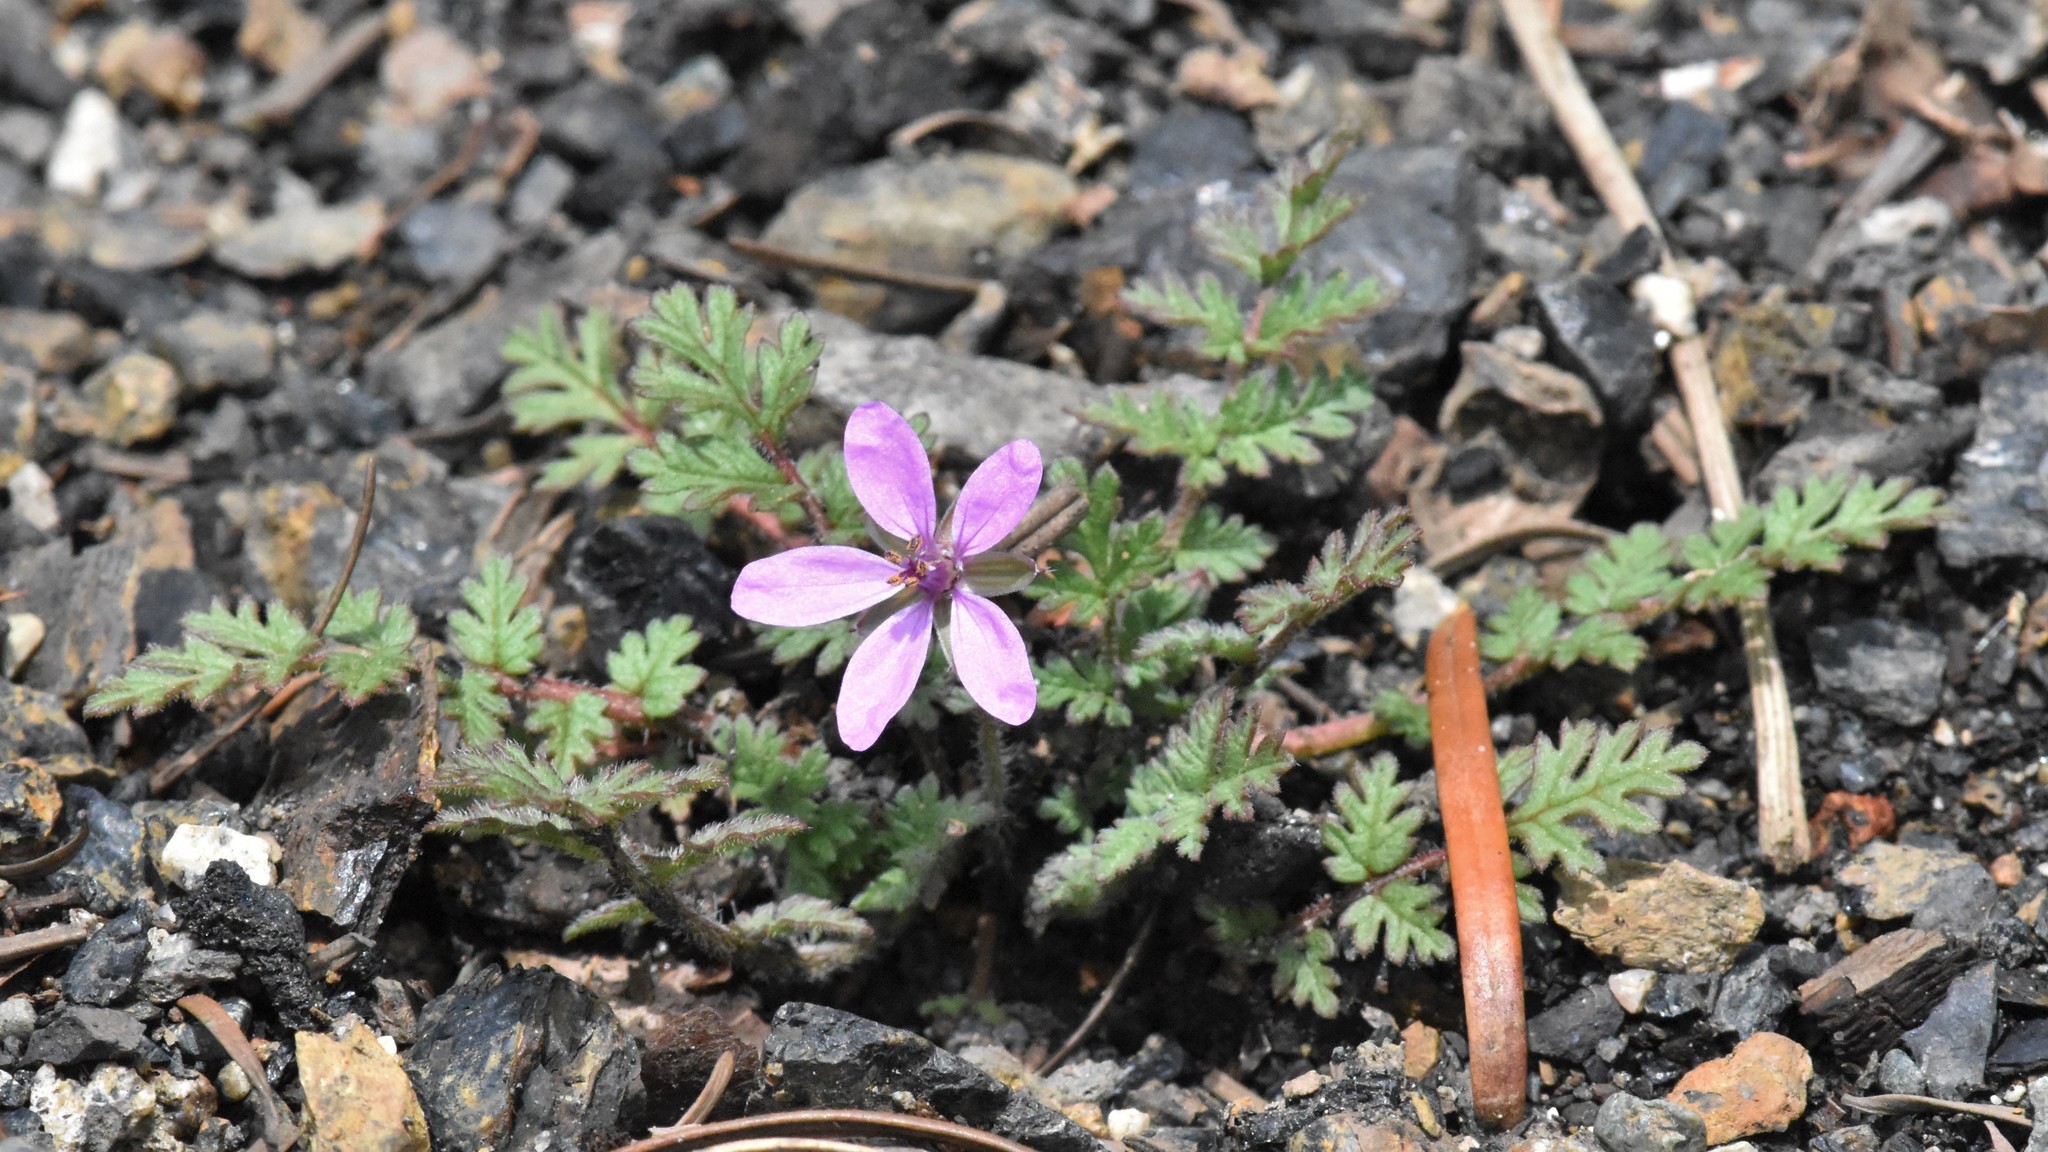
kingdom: Plantae
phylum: Tracheophyta
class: Magnoliopsida
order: Geraniales
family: Geraniaceae
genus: Erodium
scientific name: Erodium cicutarium
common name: Common stork's-bill
